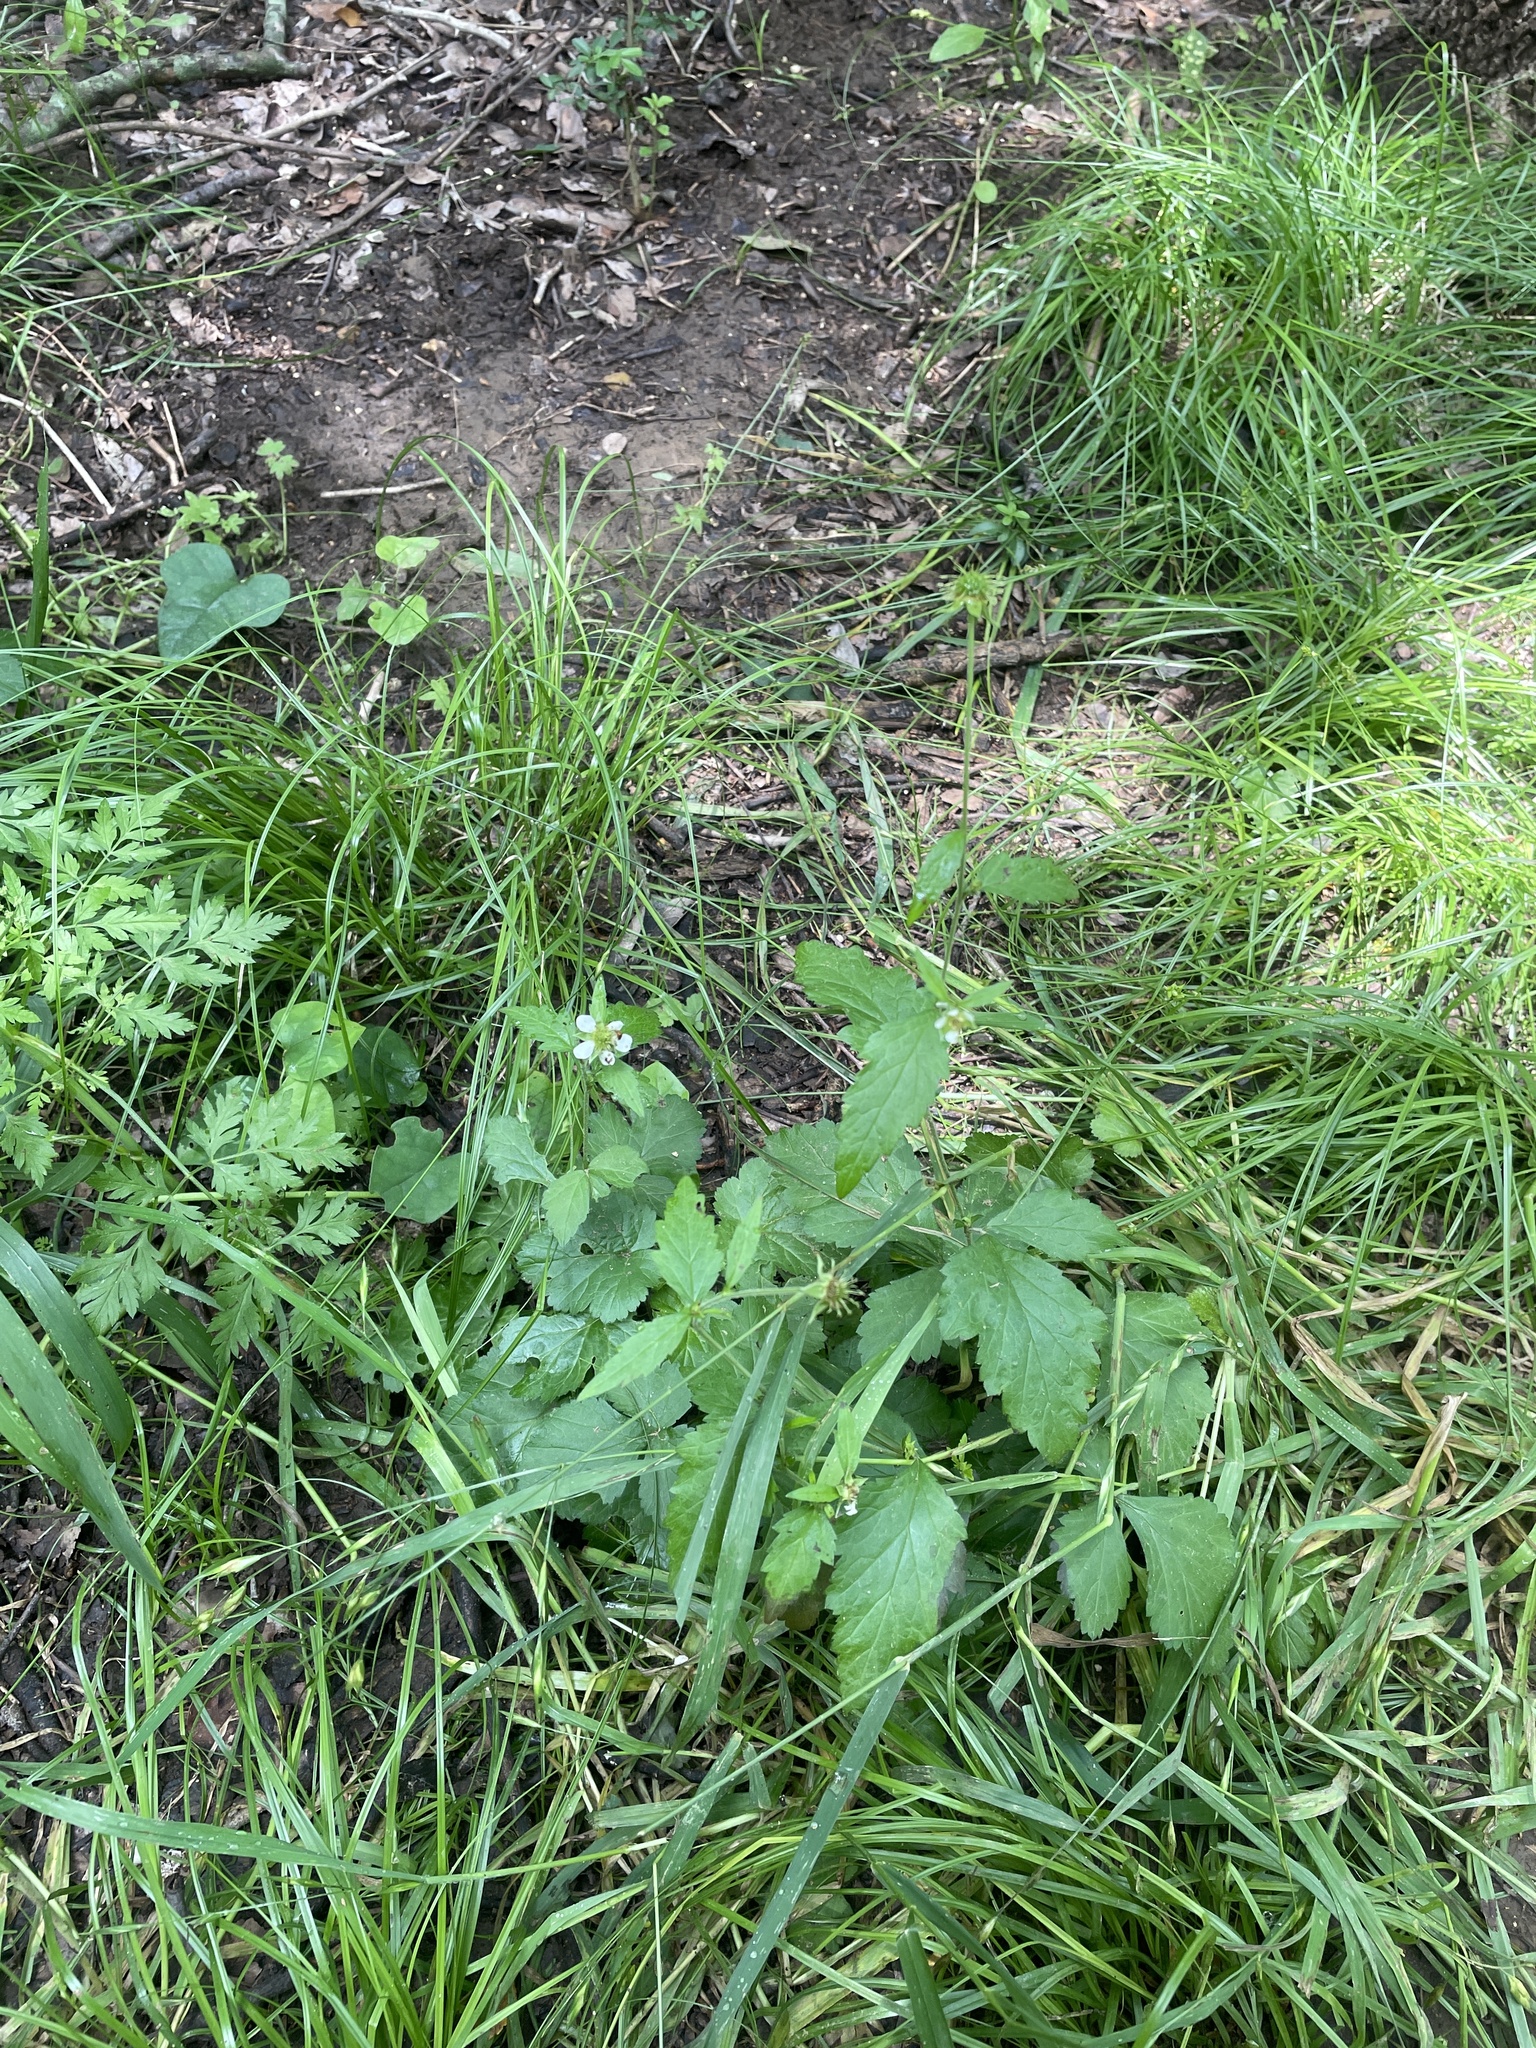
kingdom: Plantae
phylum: Tracheophyta
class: Magnoliopsida
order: Rosales
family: Rosaceae
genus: Geum
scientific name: Geum canadense
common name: White avens
